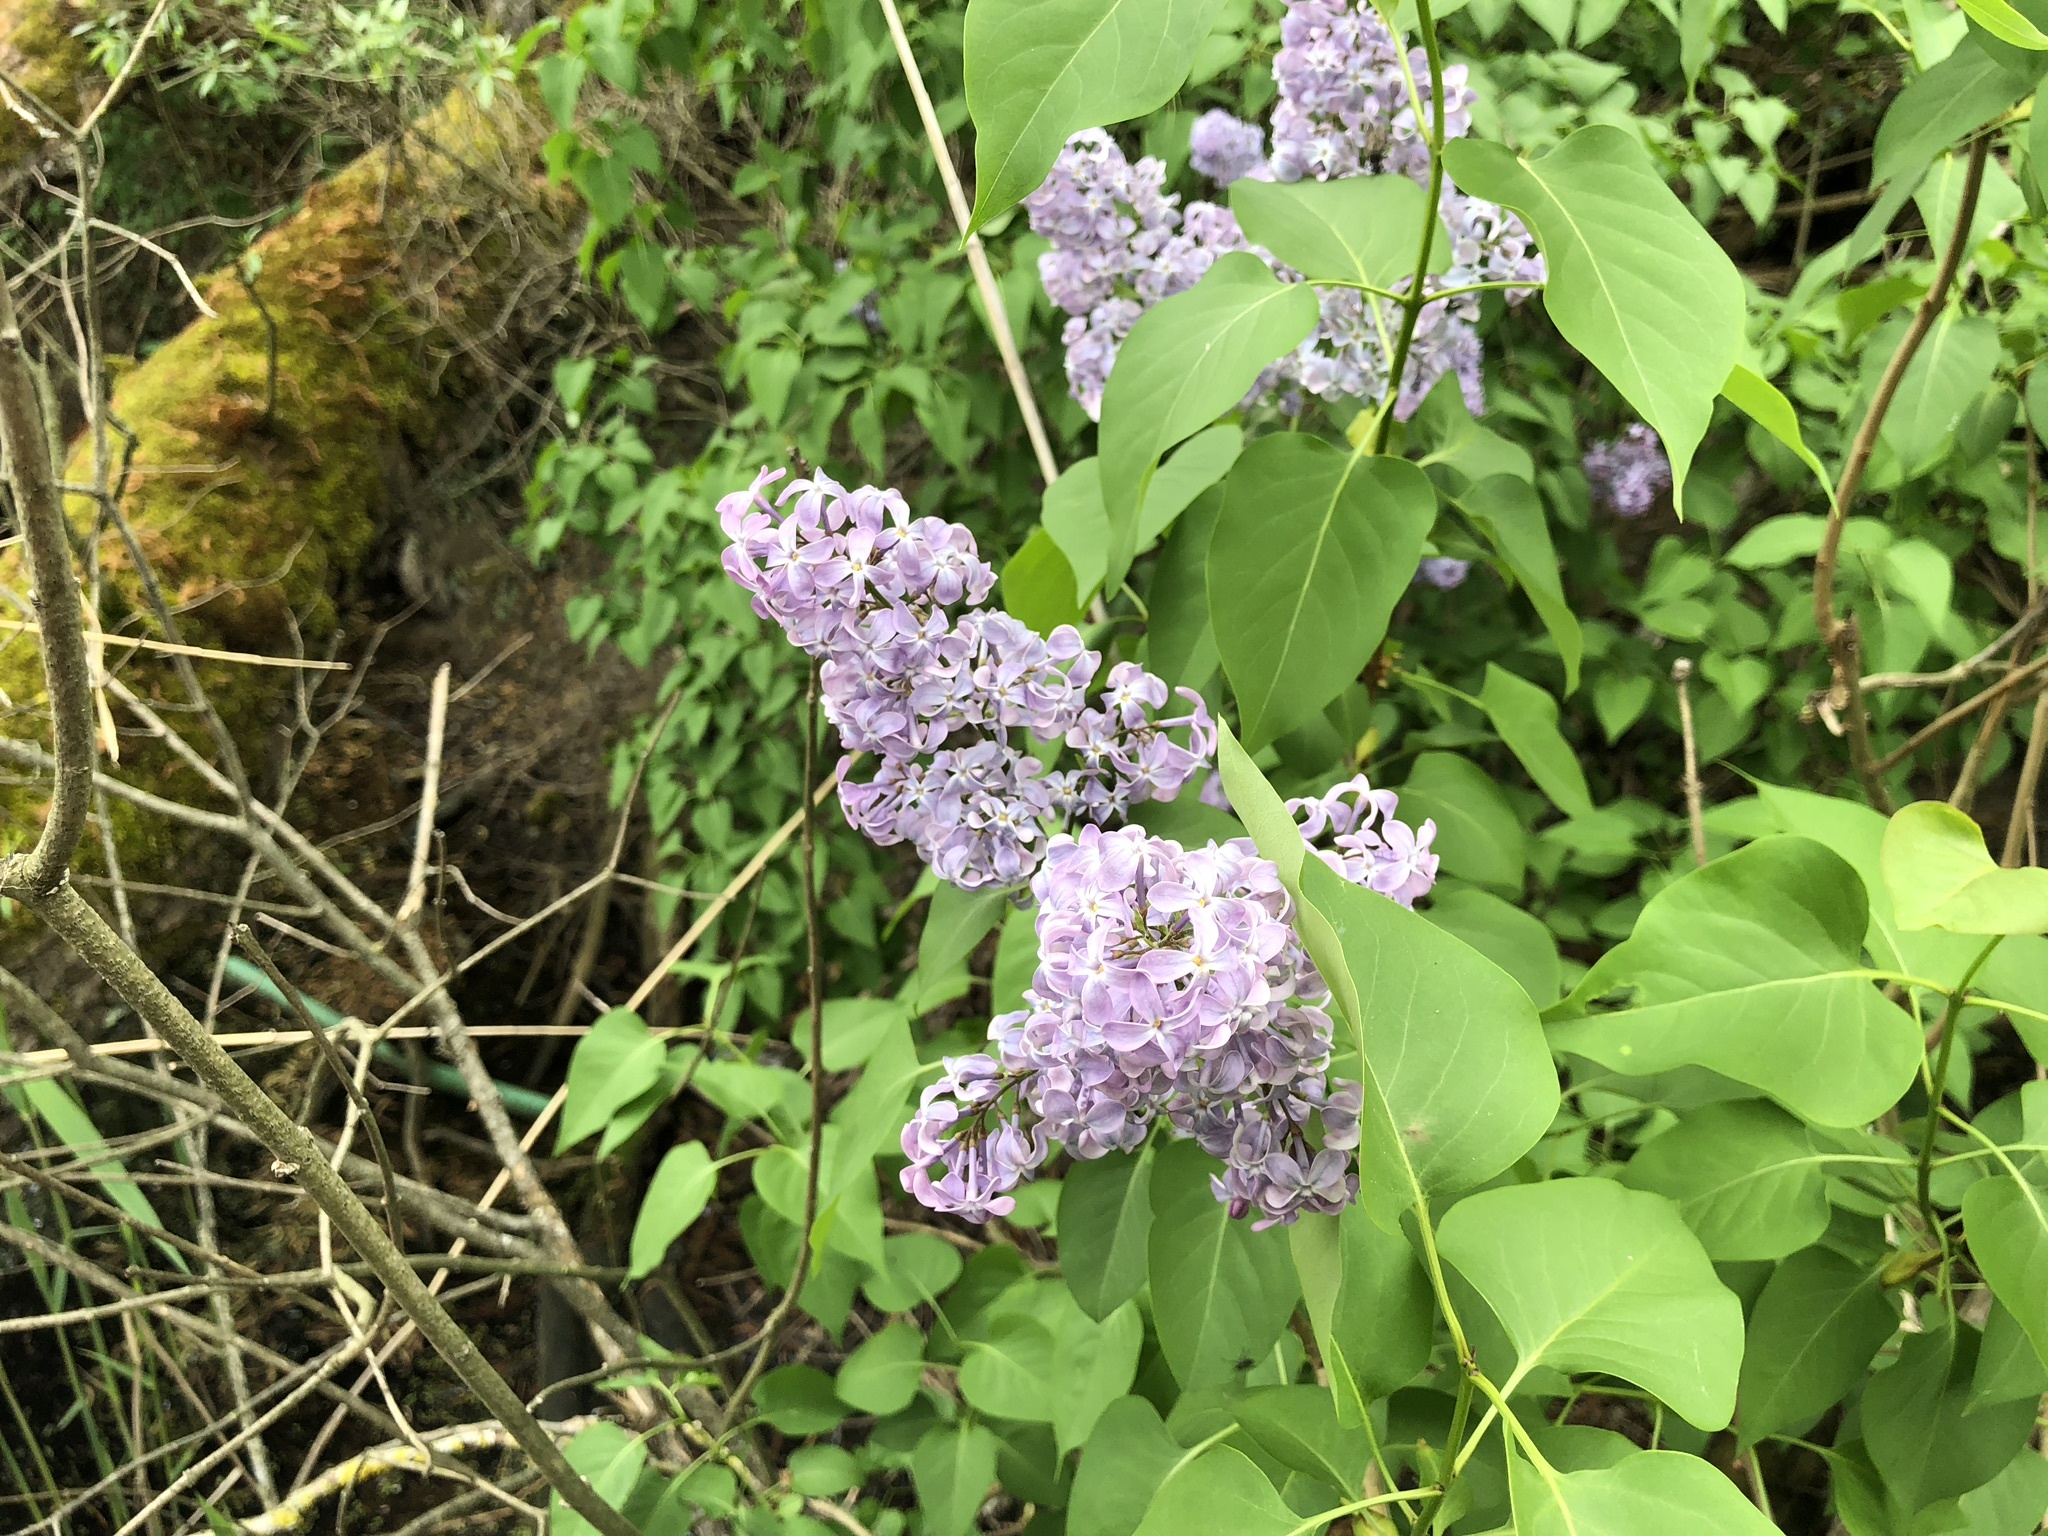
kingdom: Plantae
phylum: Tracheophyta
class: Magnoliopsida
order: Lamiales
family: Oleaceae
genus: Syringa
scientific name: Syringa vulgaris
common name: Common lilac
